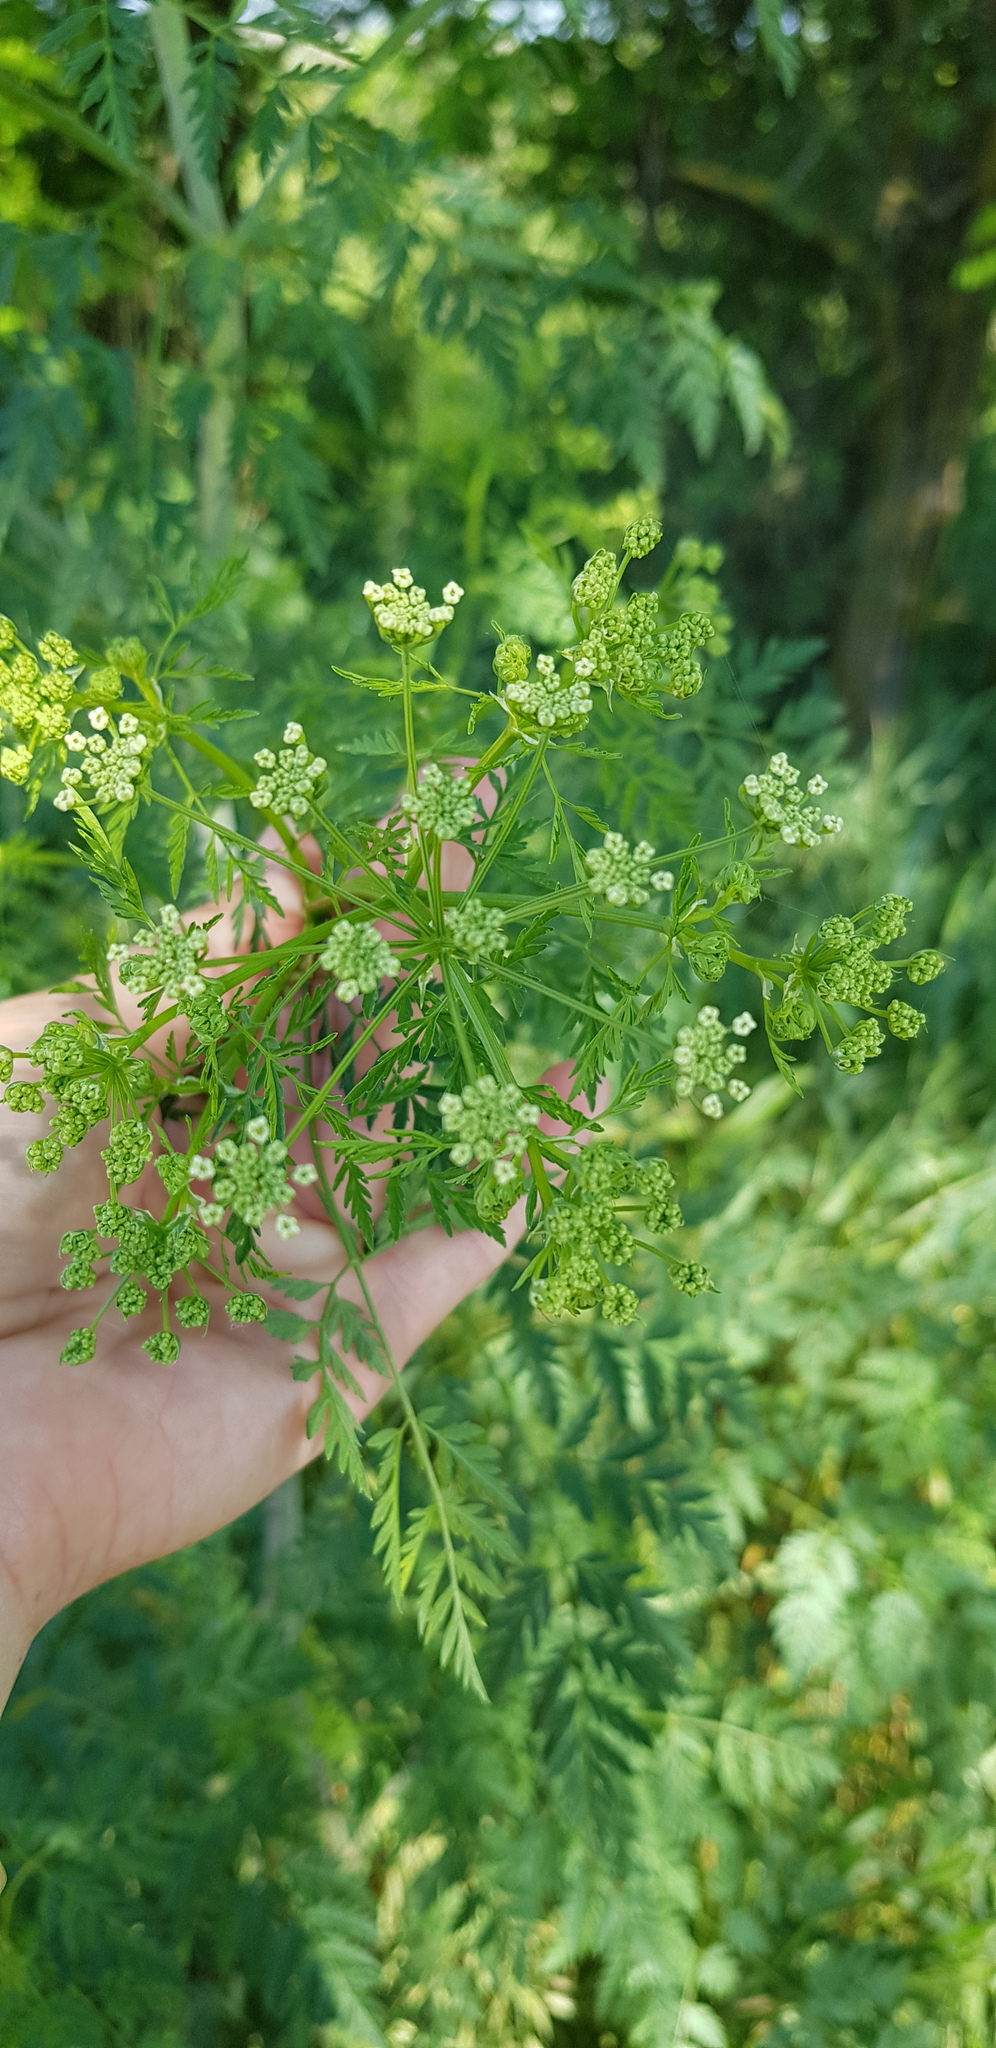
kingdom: Plantae
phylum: Tracheophyta
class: Magnoliopsida
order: Apiales
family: Apiaceae
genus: Conium
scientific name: Conium maculatum
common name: Hemlock
